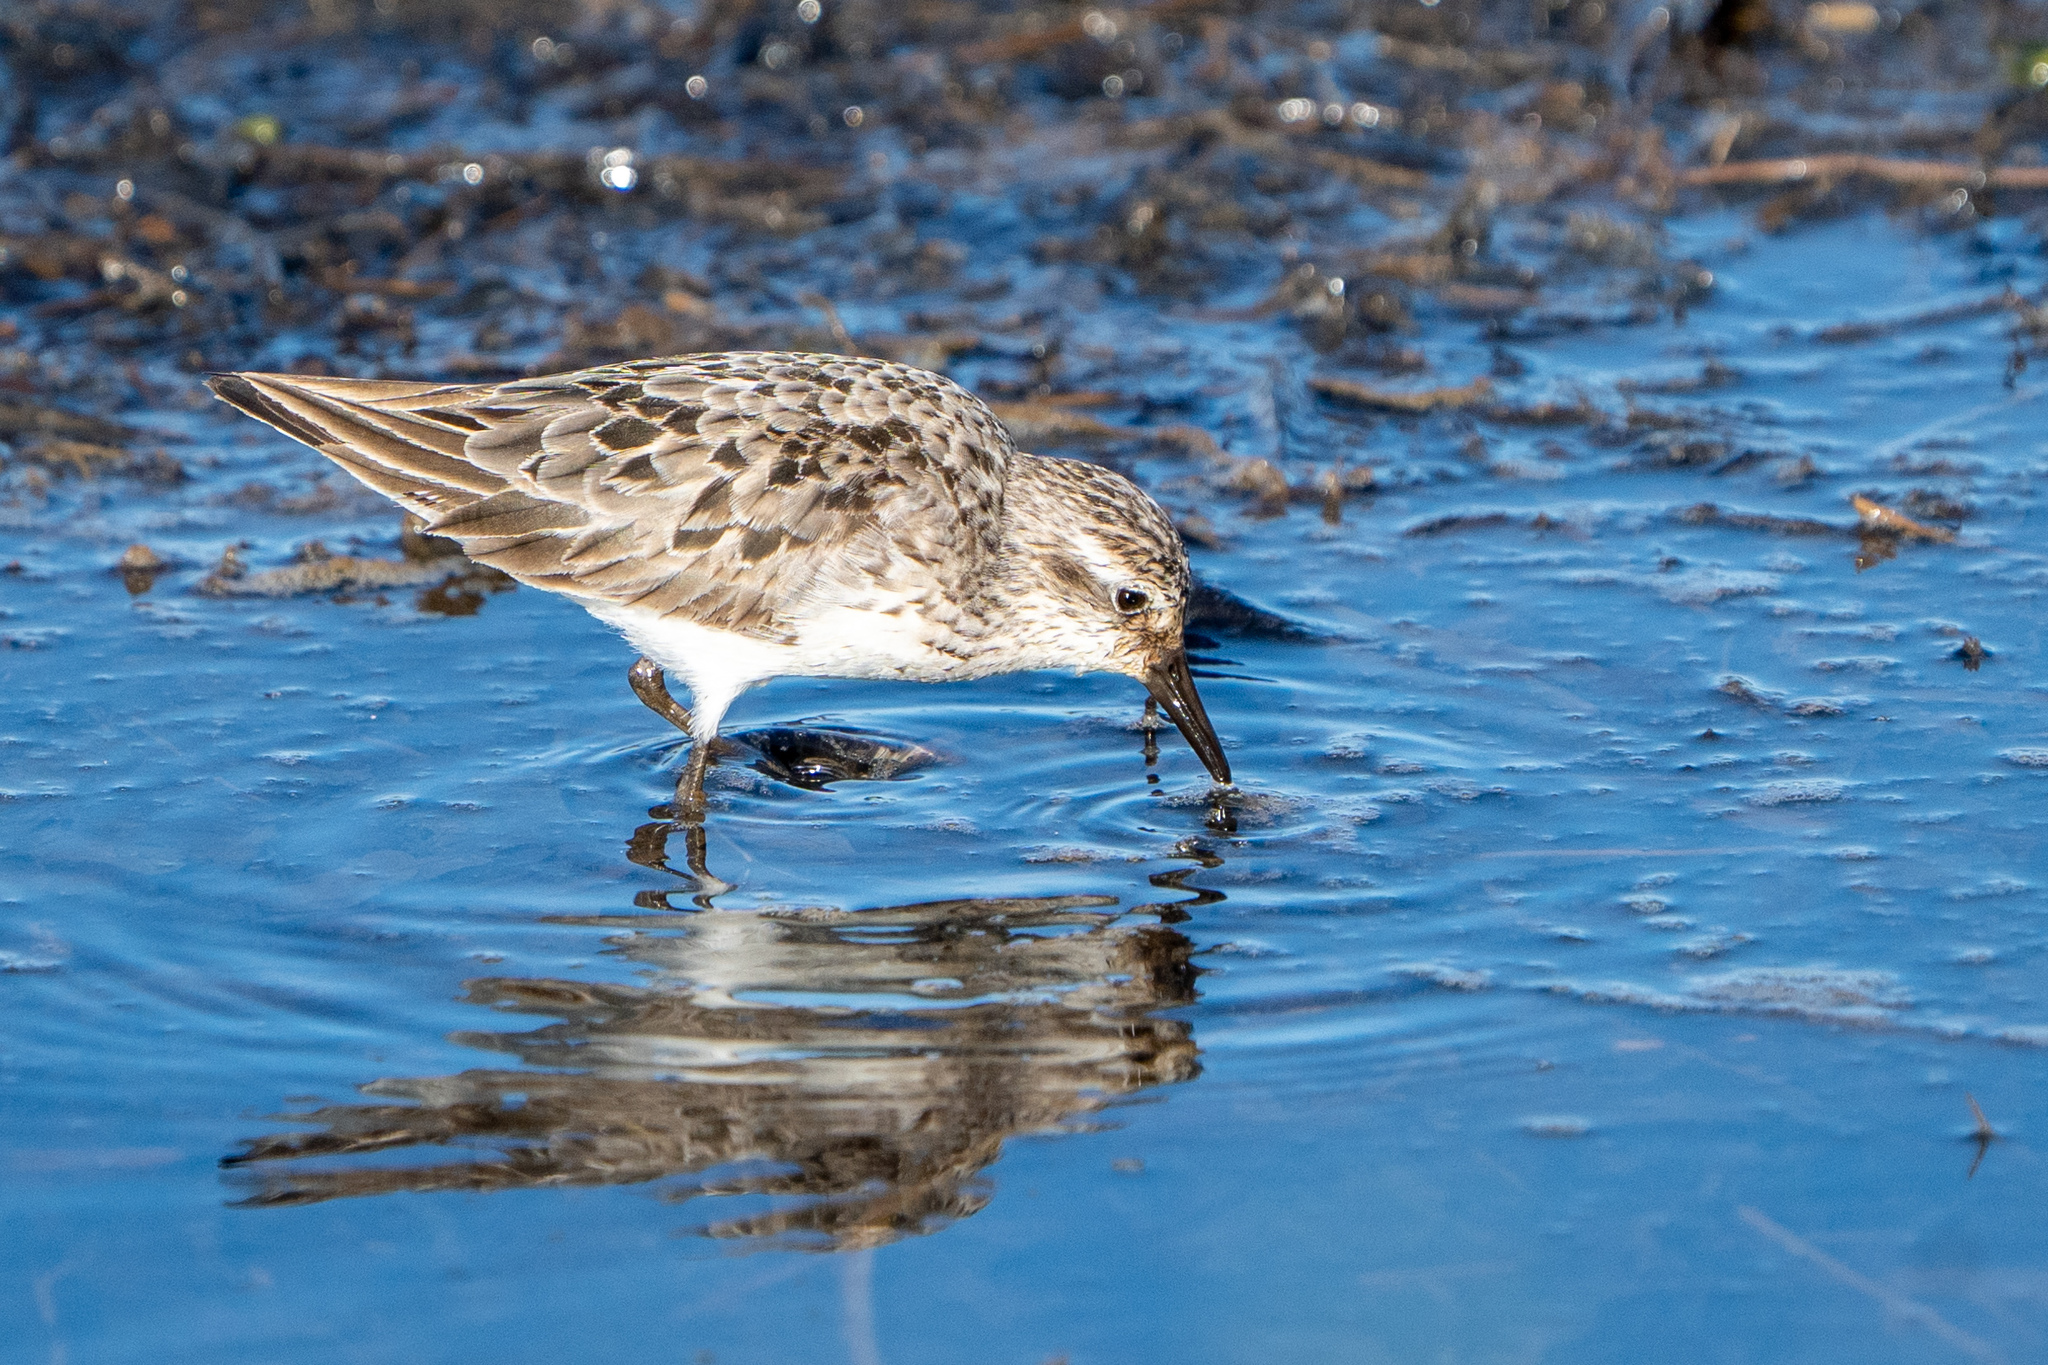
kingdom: Animalia
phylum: Chordata
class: Aves
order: Charadriiformes
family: Scolopacidae
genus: Calidris
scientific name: Calidris pusilla
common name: Semipalmated sandpiper
